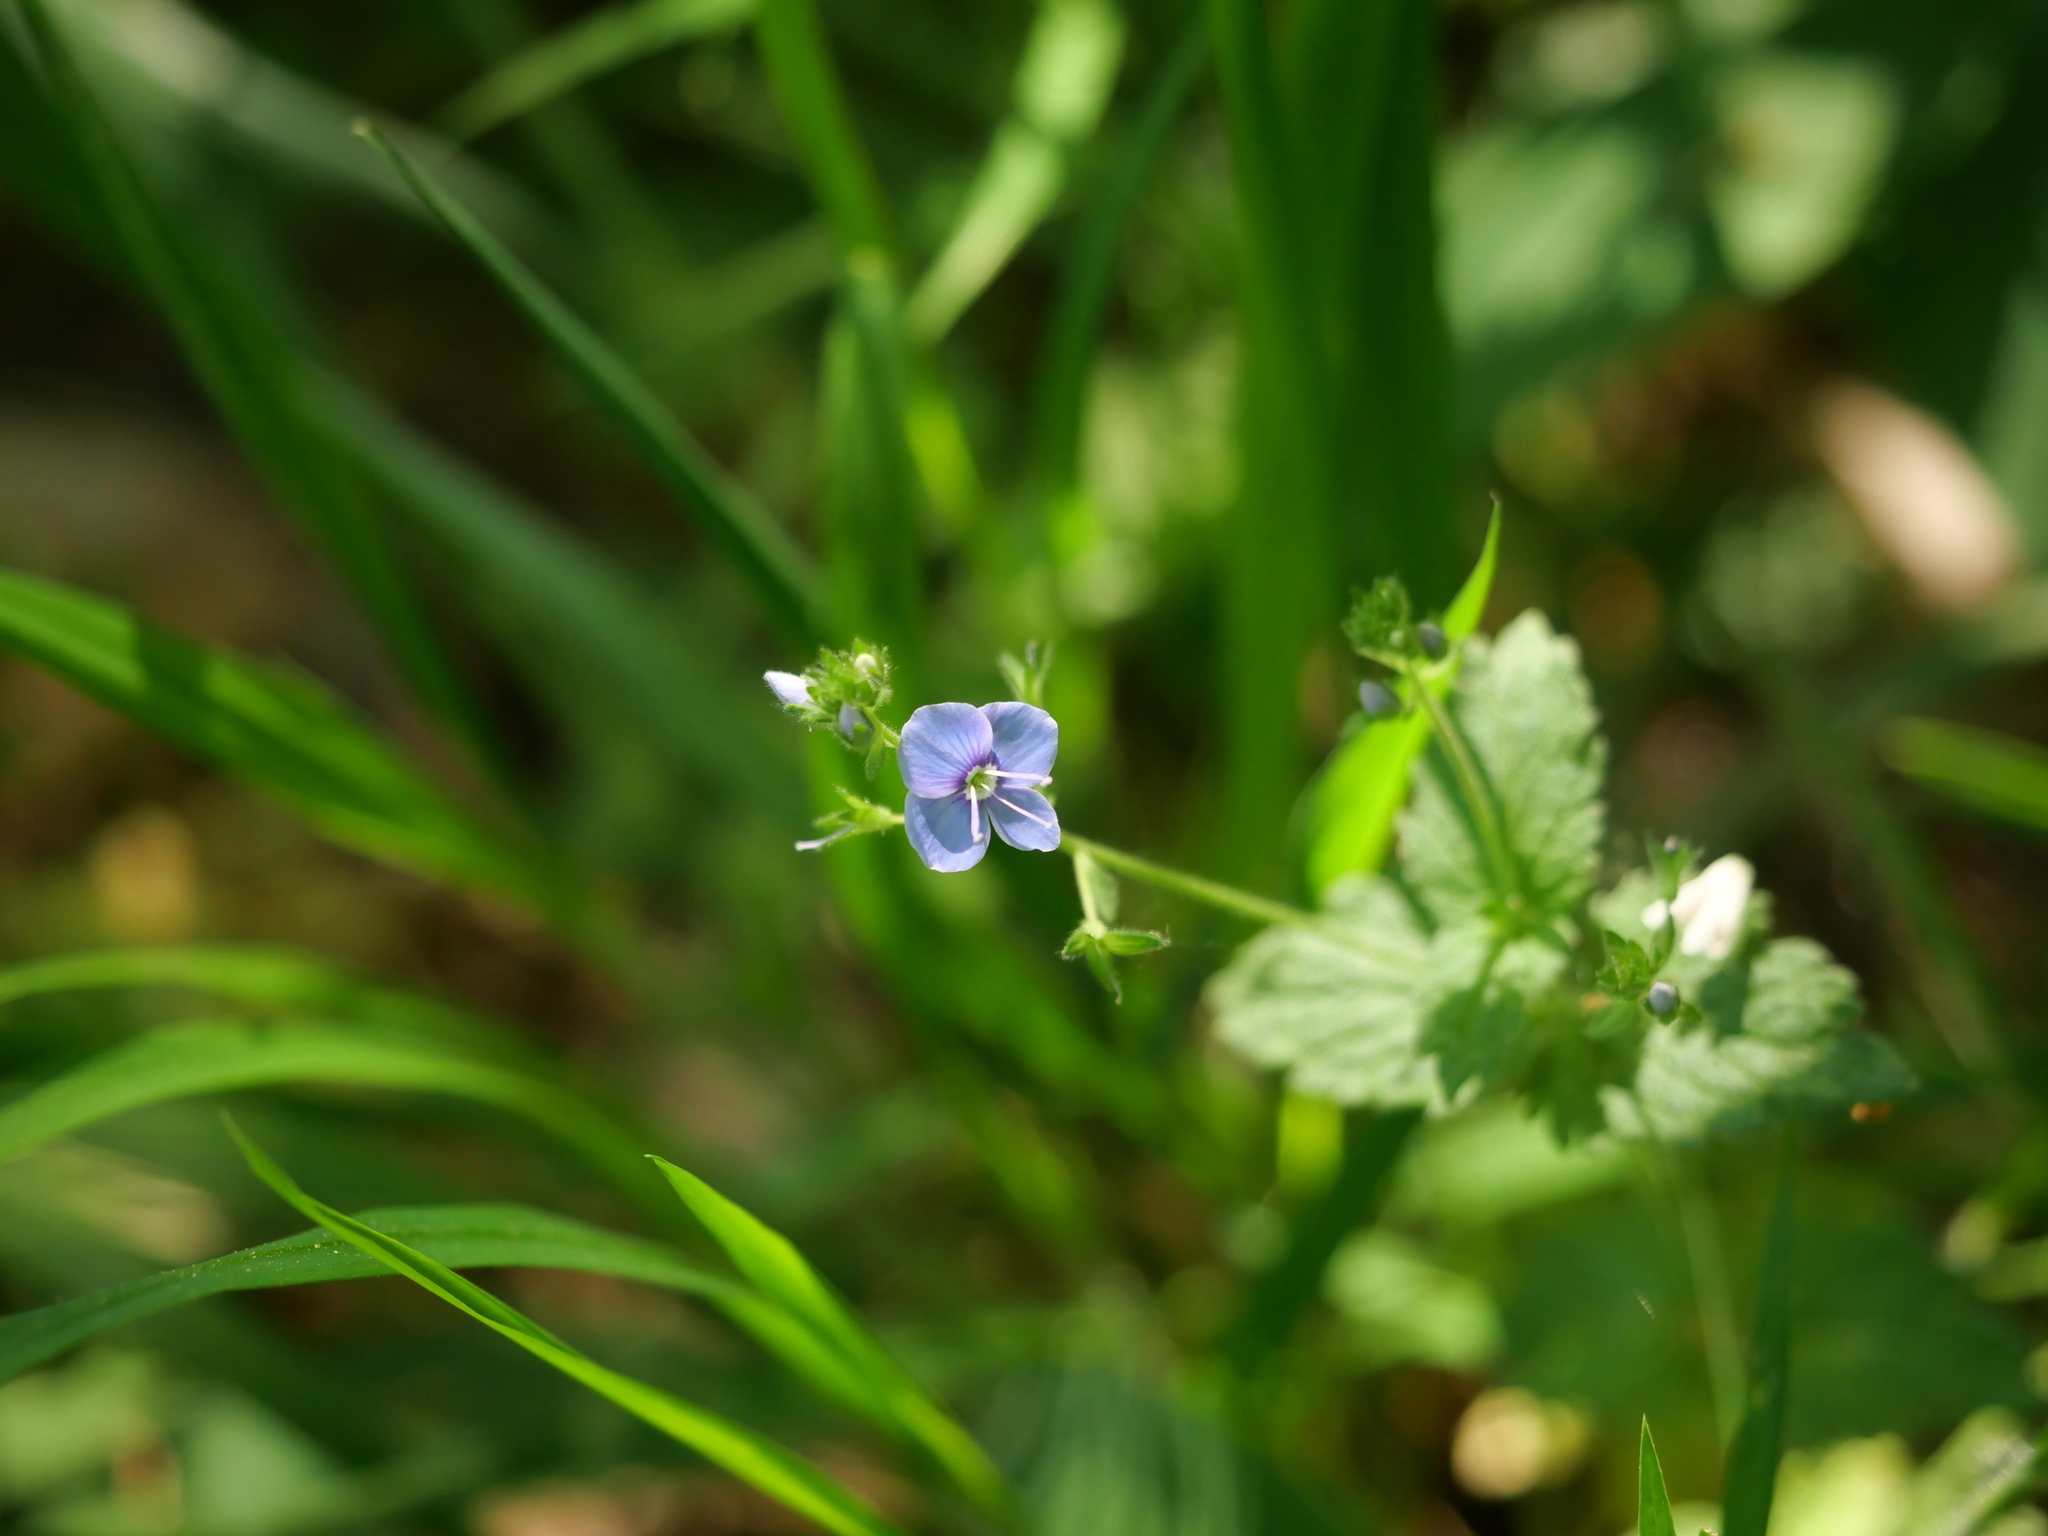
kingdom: Plantae
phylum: Tracheophyta
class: Magnoliopsida
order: Lamiales
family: Plantaginaceae
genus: Veronica
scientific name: Veronica chamaedrys
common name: Germander speedwell
